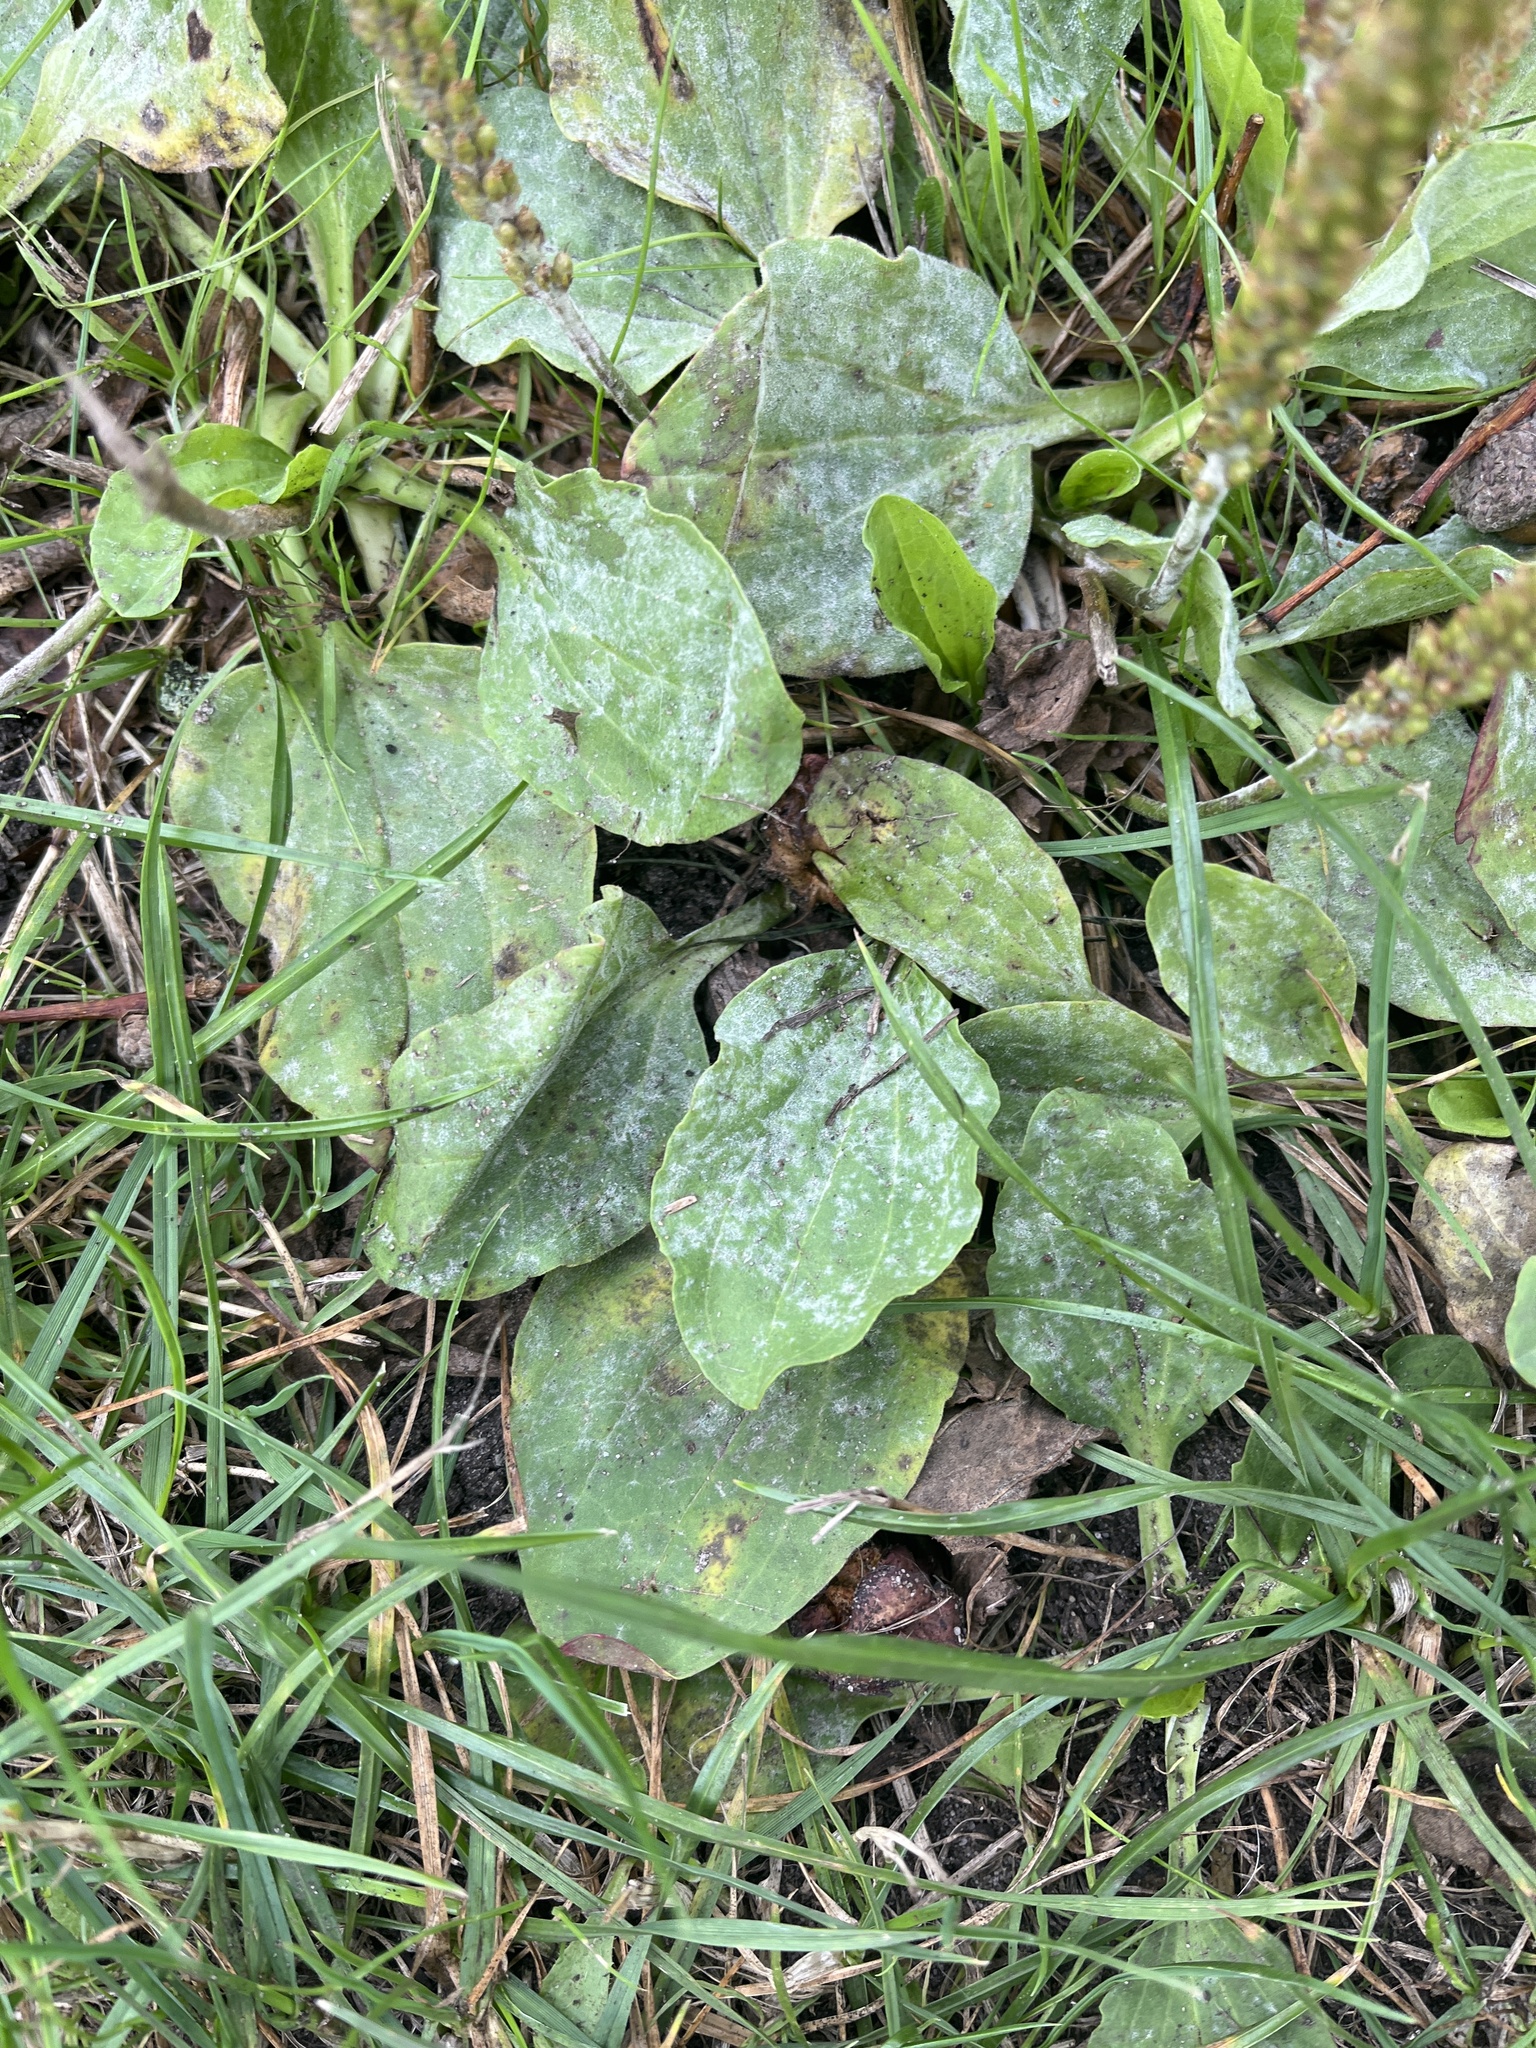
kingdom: Fungi
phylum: Ascomycota
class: Leotiomycetes
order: Helotiales
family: Erysiphaceae
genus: Golovinomyces
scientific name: Golovinomyces sordidus
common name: Plantain mildew
